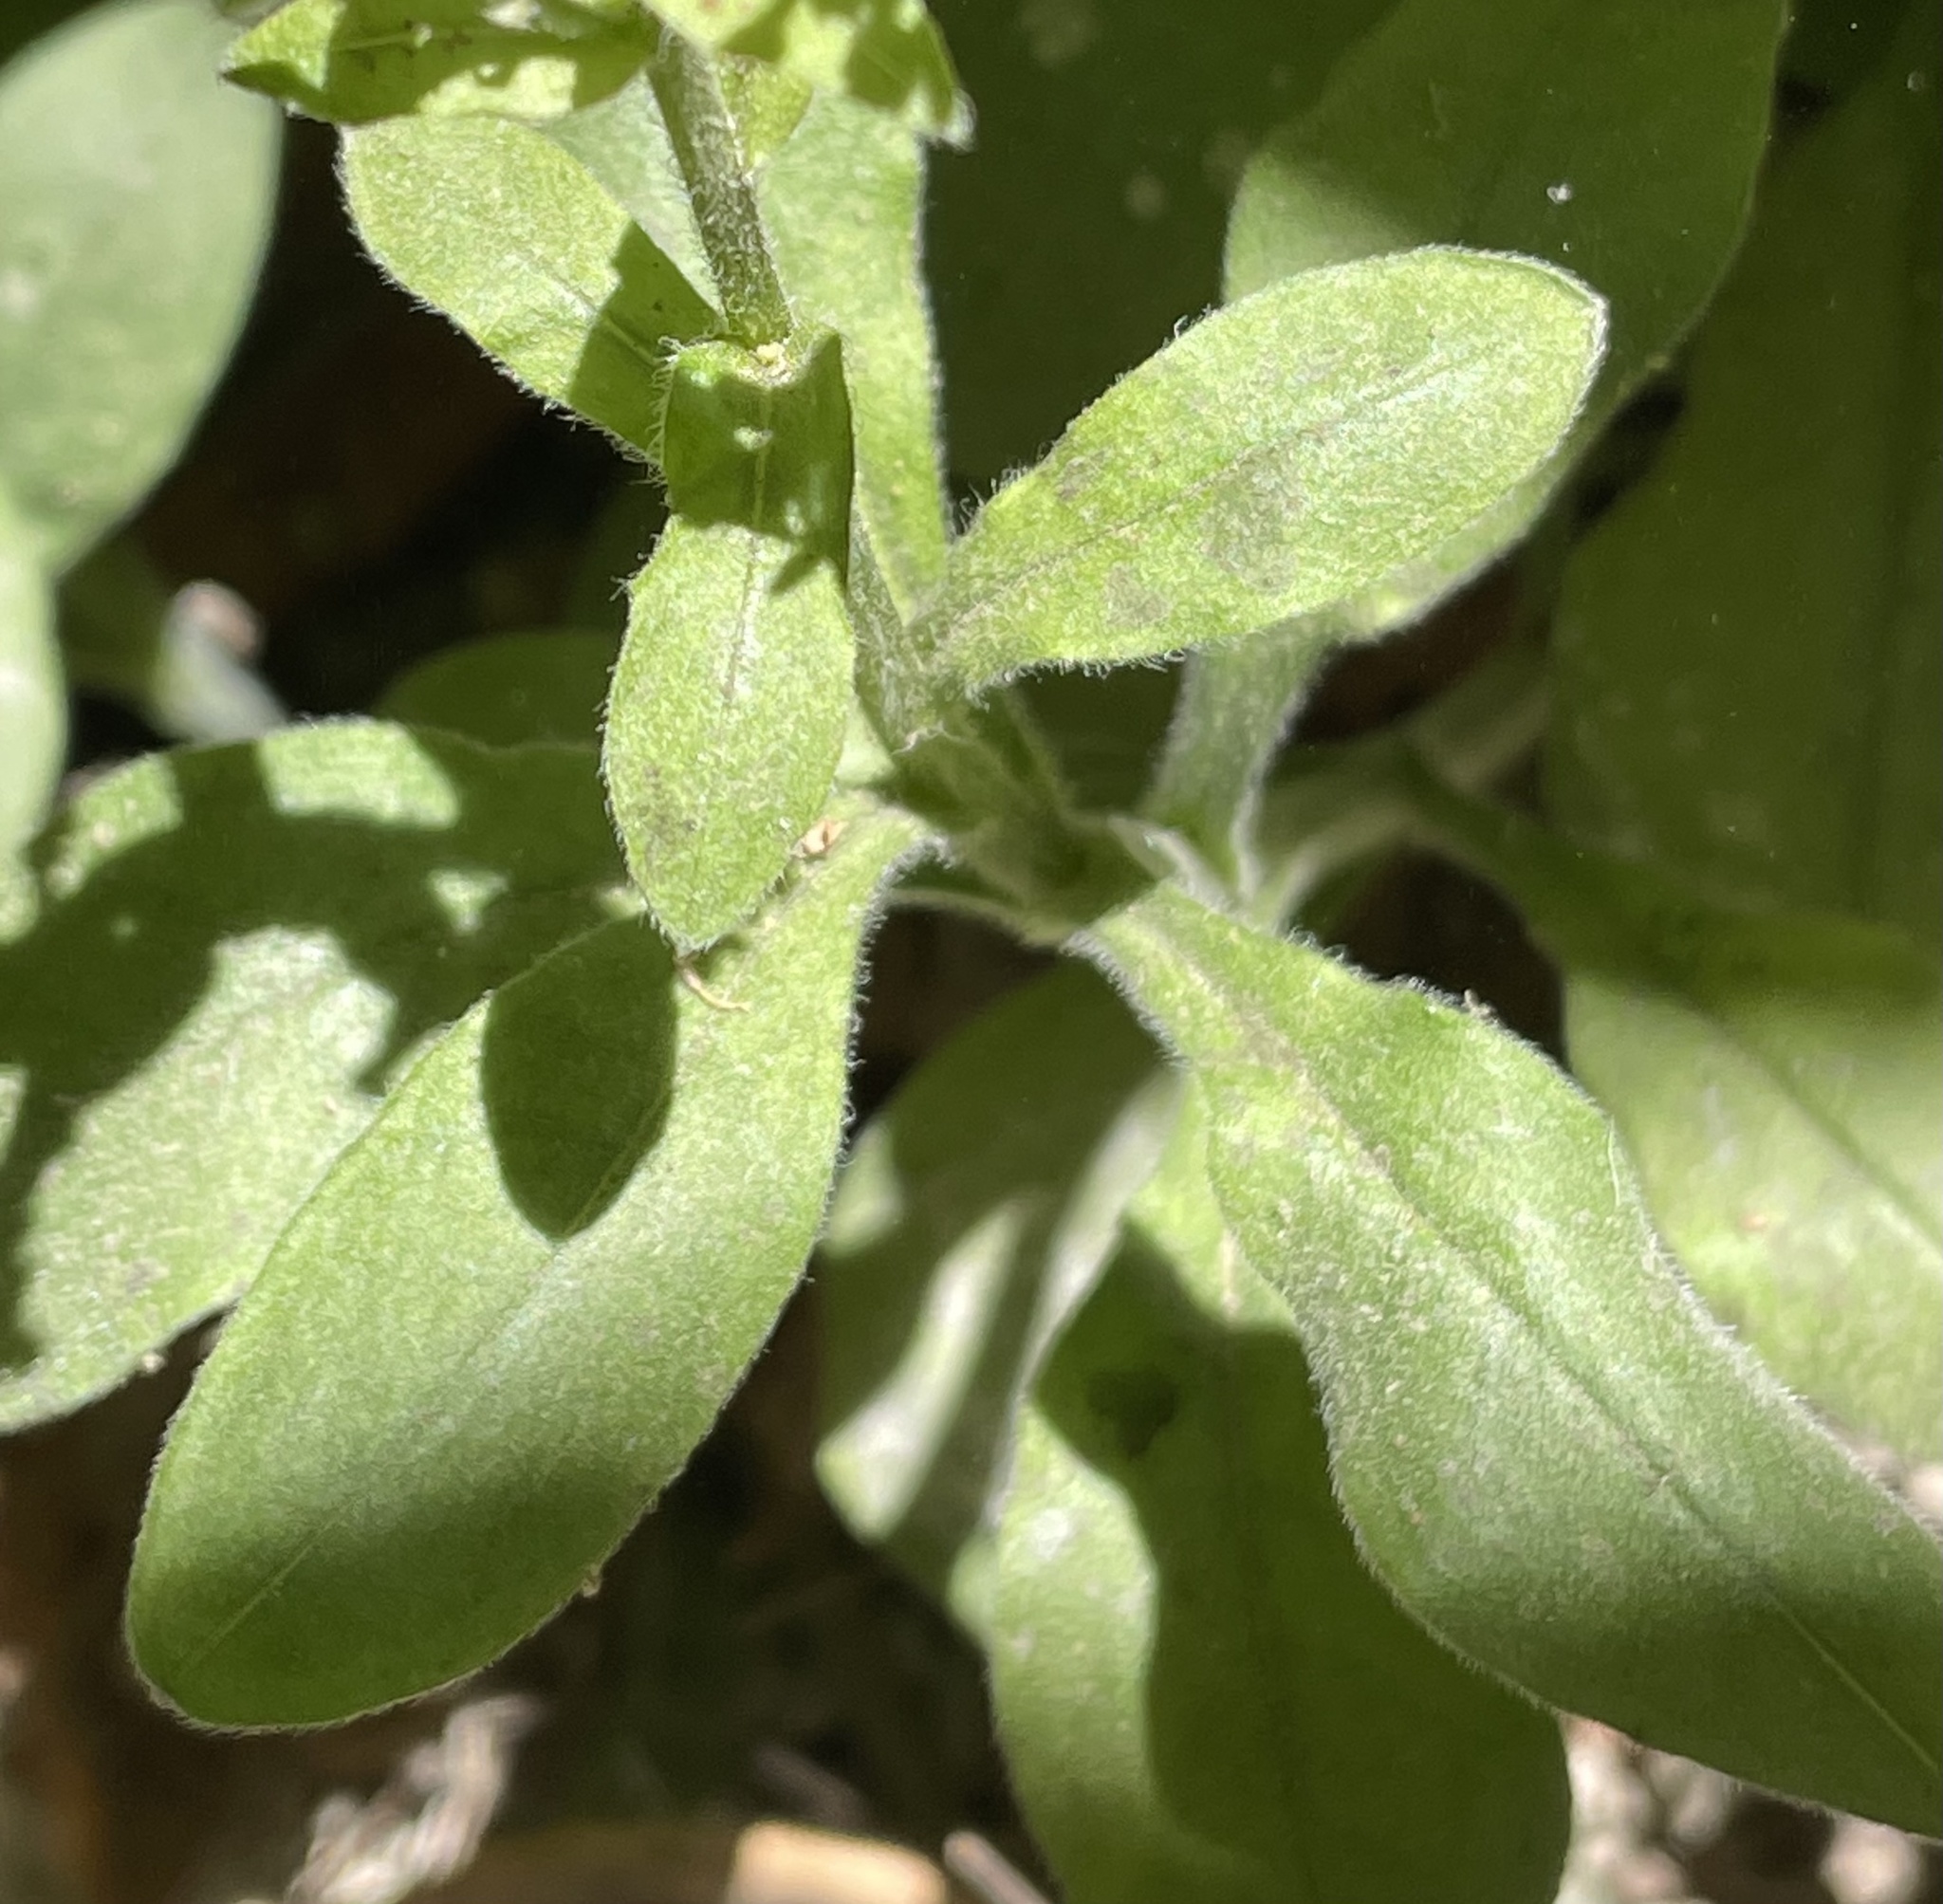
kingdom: Plantae
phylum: Tracheophyta
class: Magnoliopsida
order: Boraginales
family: Boraginaceae
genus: Myosotis
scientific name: Myosotis latifolia
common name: Broadleaf forget-me-not
